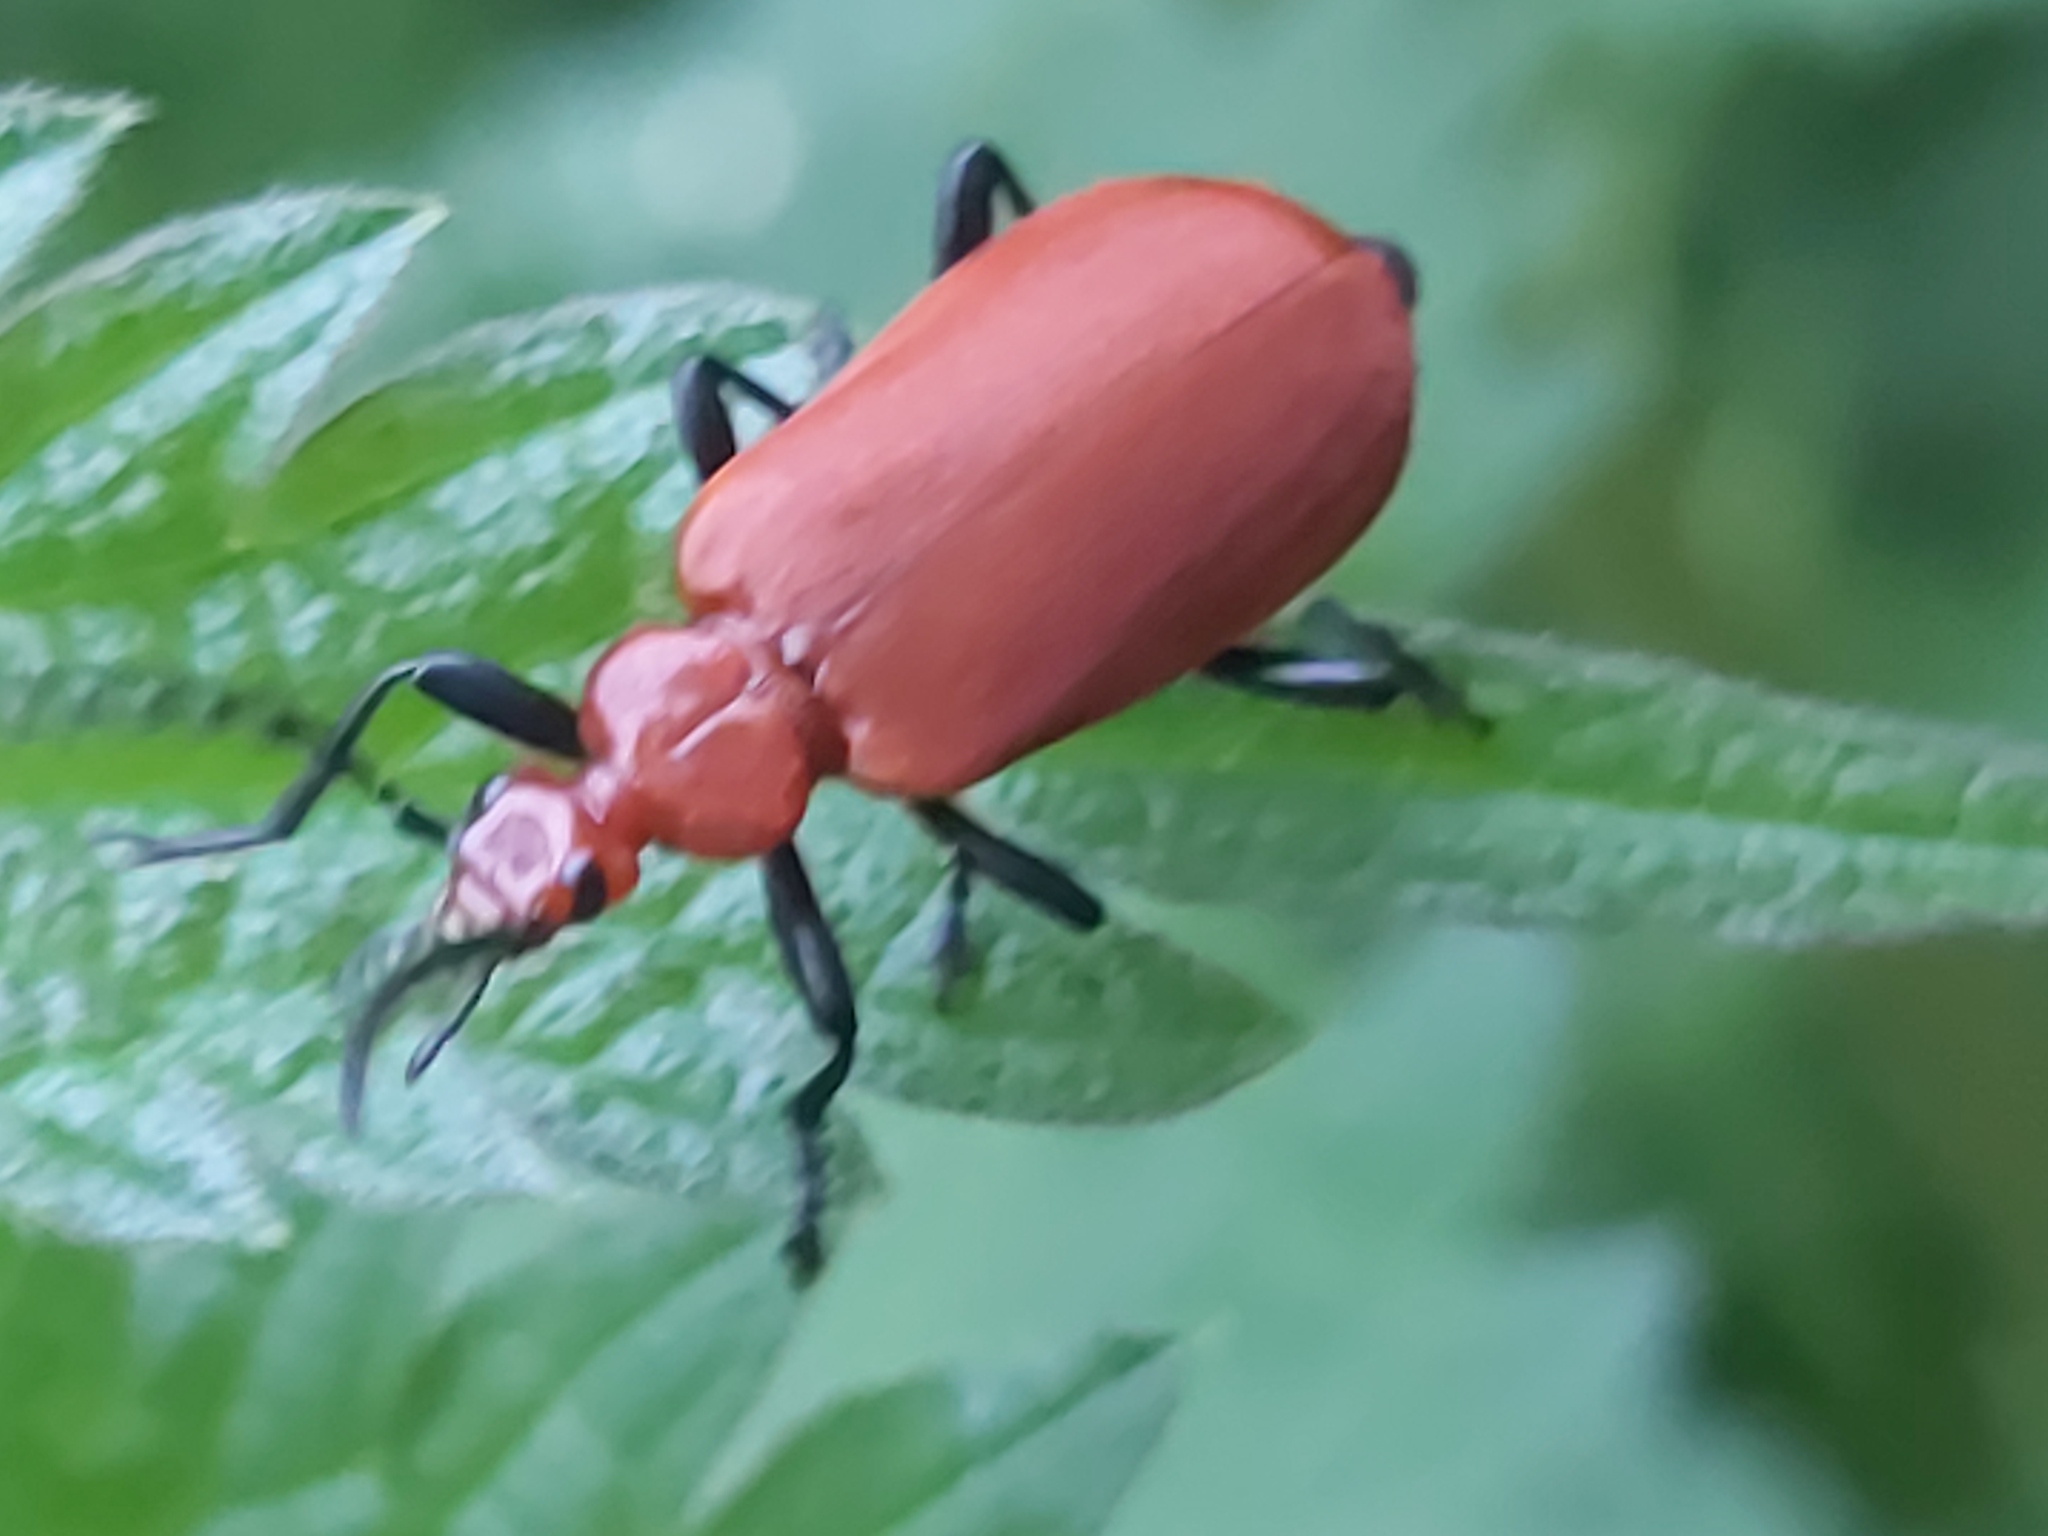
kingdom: Animalia
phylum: Arthropoda
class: Insecta
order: Coleoptera
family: Pyrochroidae
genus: Pyrochroa
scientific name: Pyrochroa serraticornis
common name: Red-headed cardinal beetle
